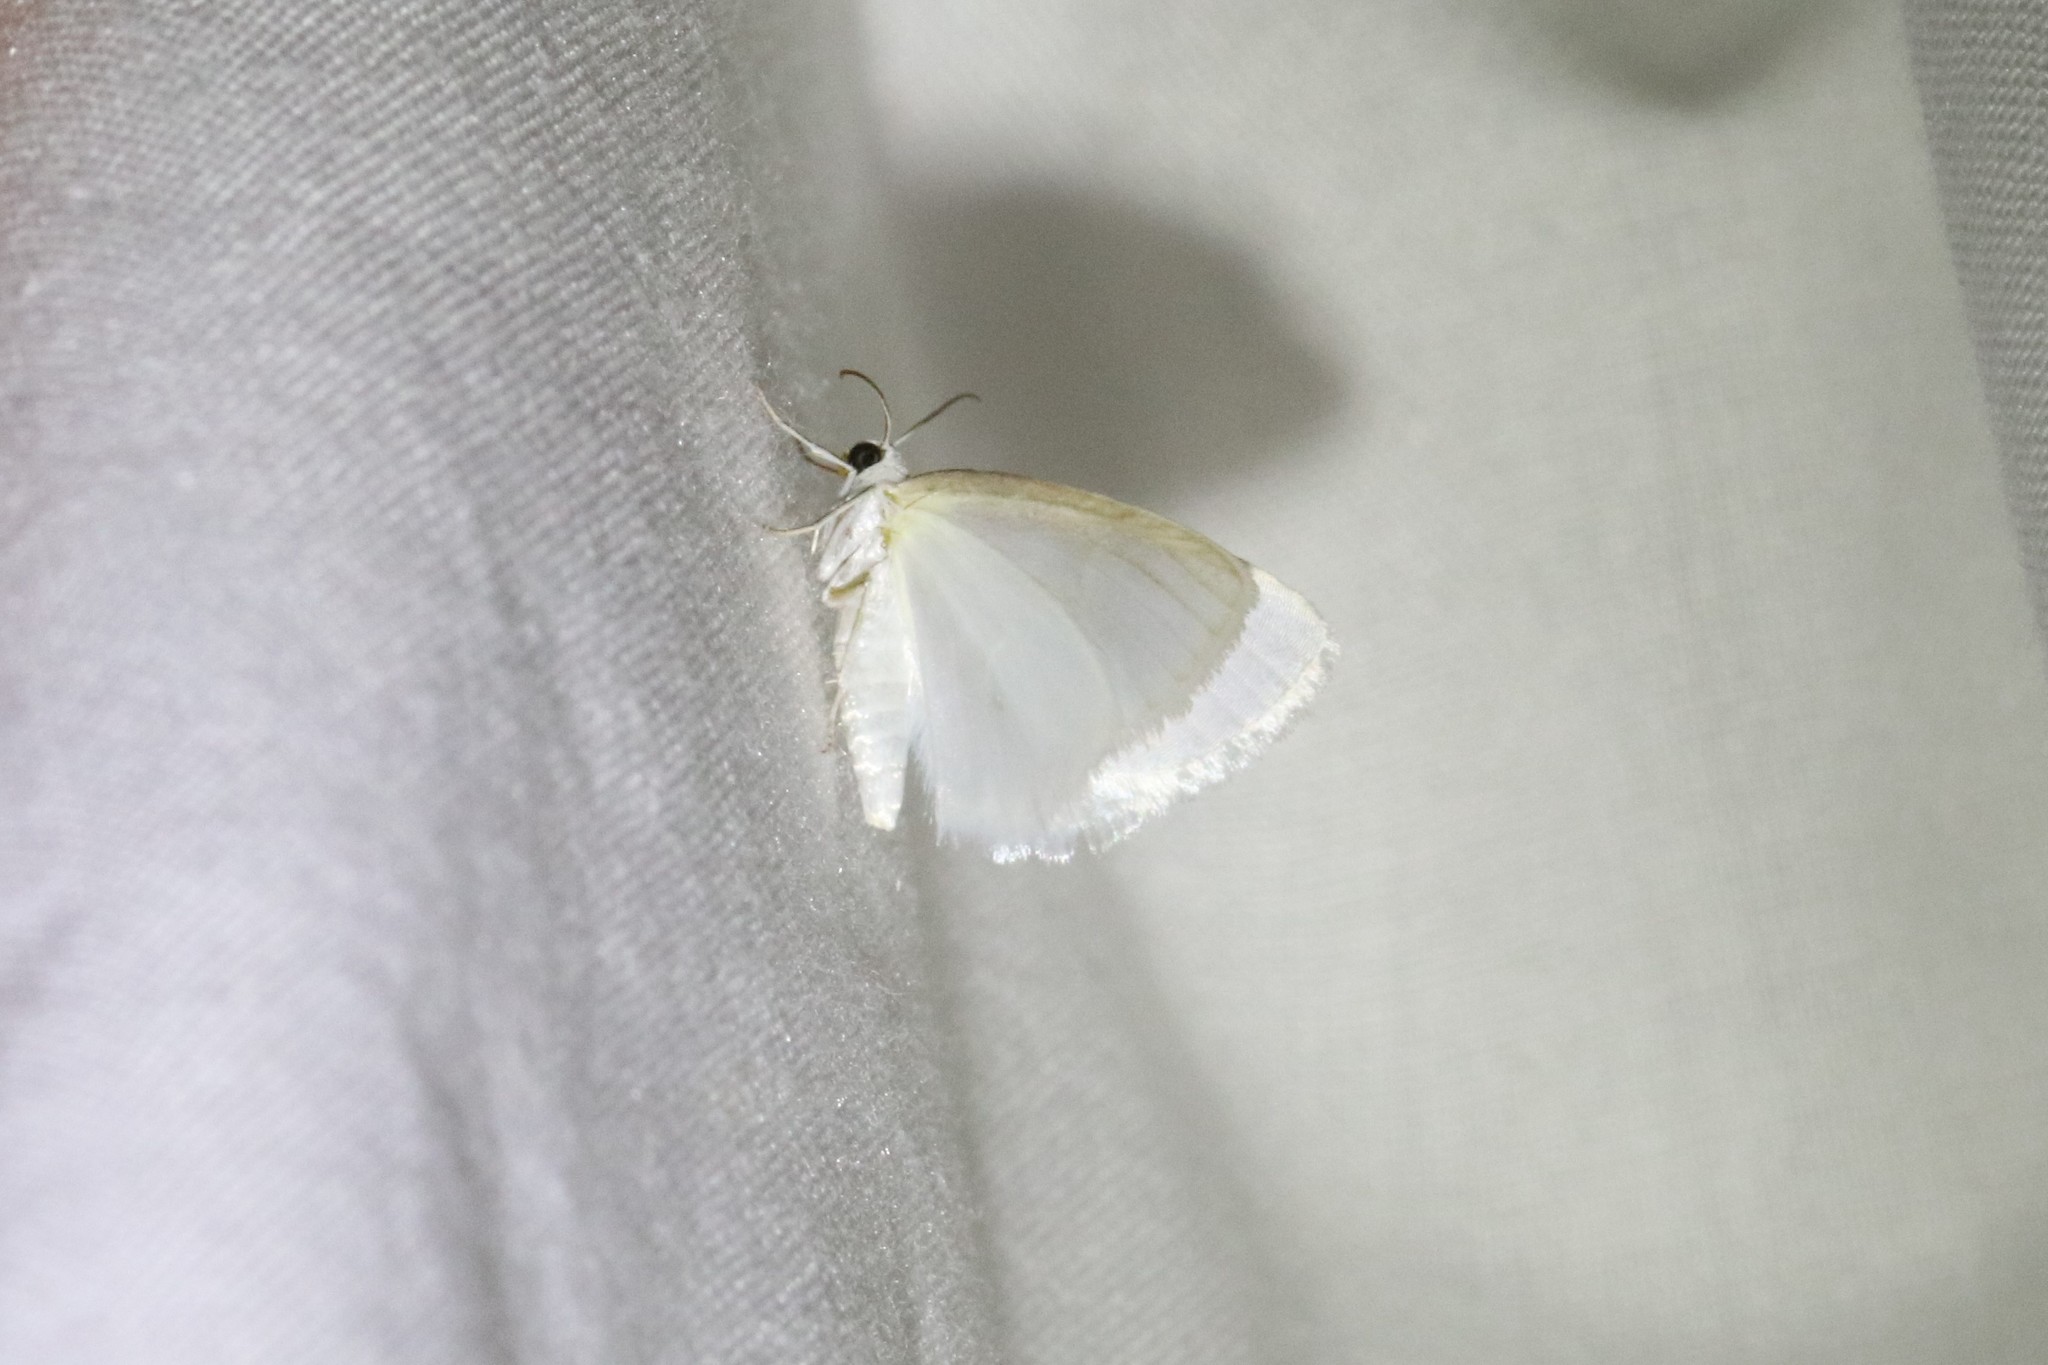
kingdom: Animalia
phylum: Arthropoda
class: Insecta
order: Lepidoptera
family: Geometridae
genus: Lomographa
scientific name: Lomographa vestaliata
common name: White spring moth
